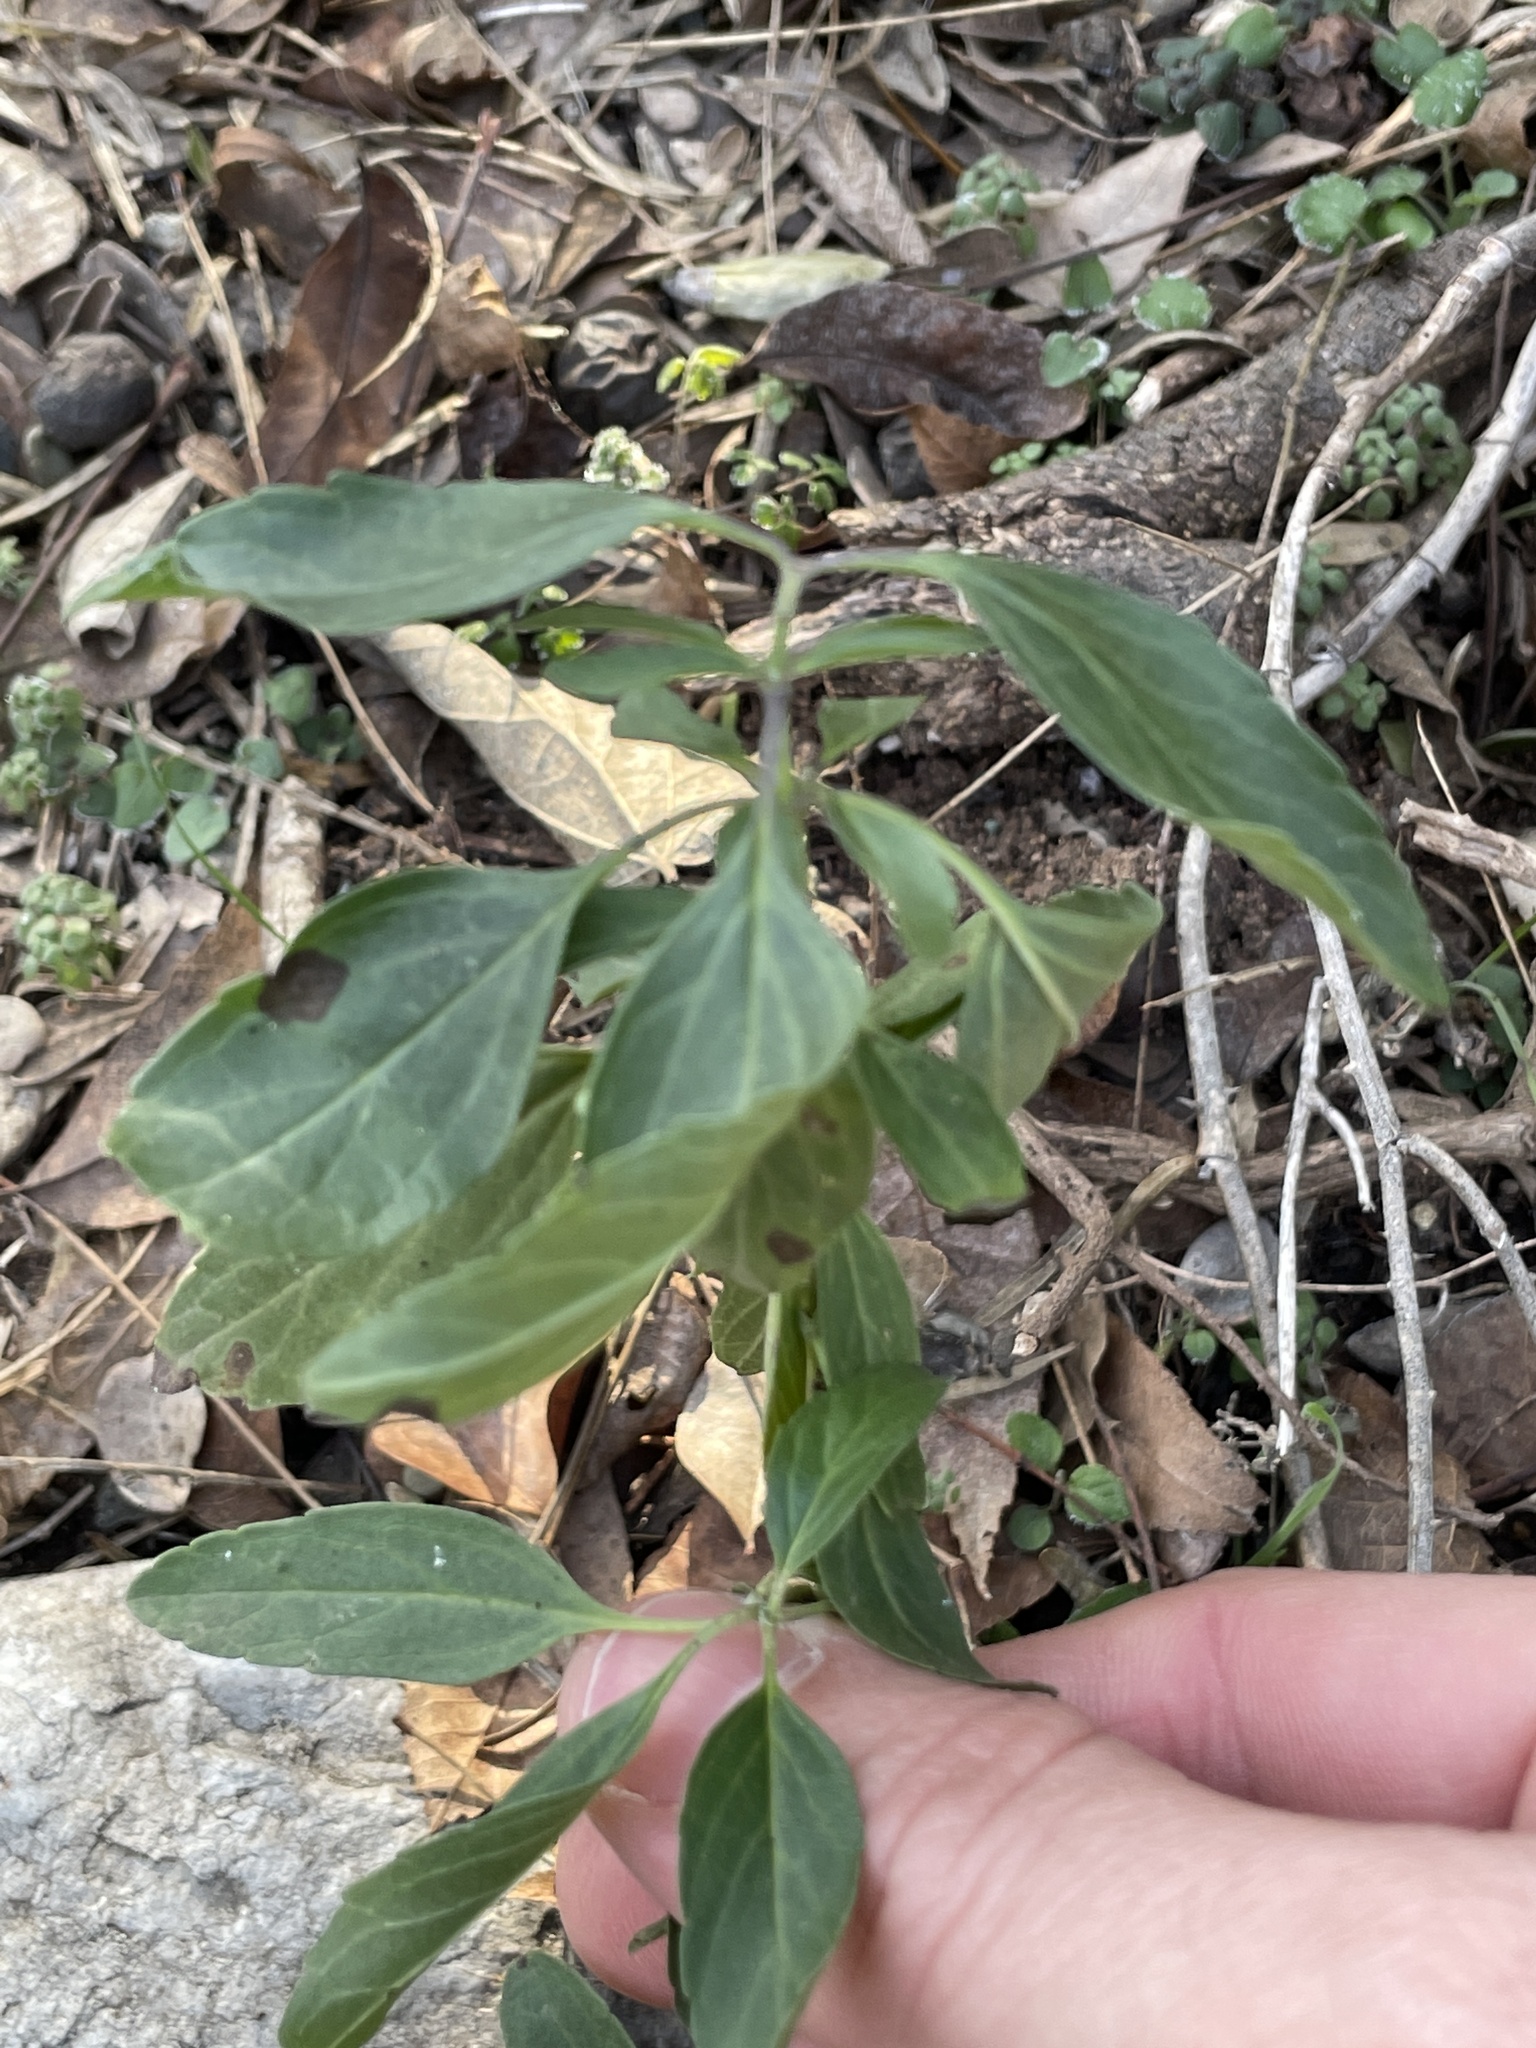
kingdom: Plantae
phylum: Tracheophyta
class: Magnoliopsida
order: Lamiales
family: Lamiaceae
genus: Salvia
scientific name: Salvia farinacea
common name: Mealy sage
